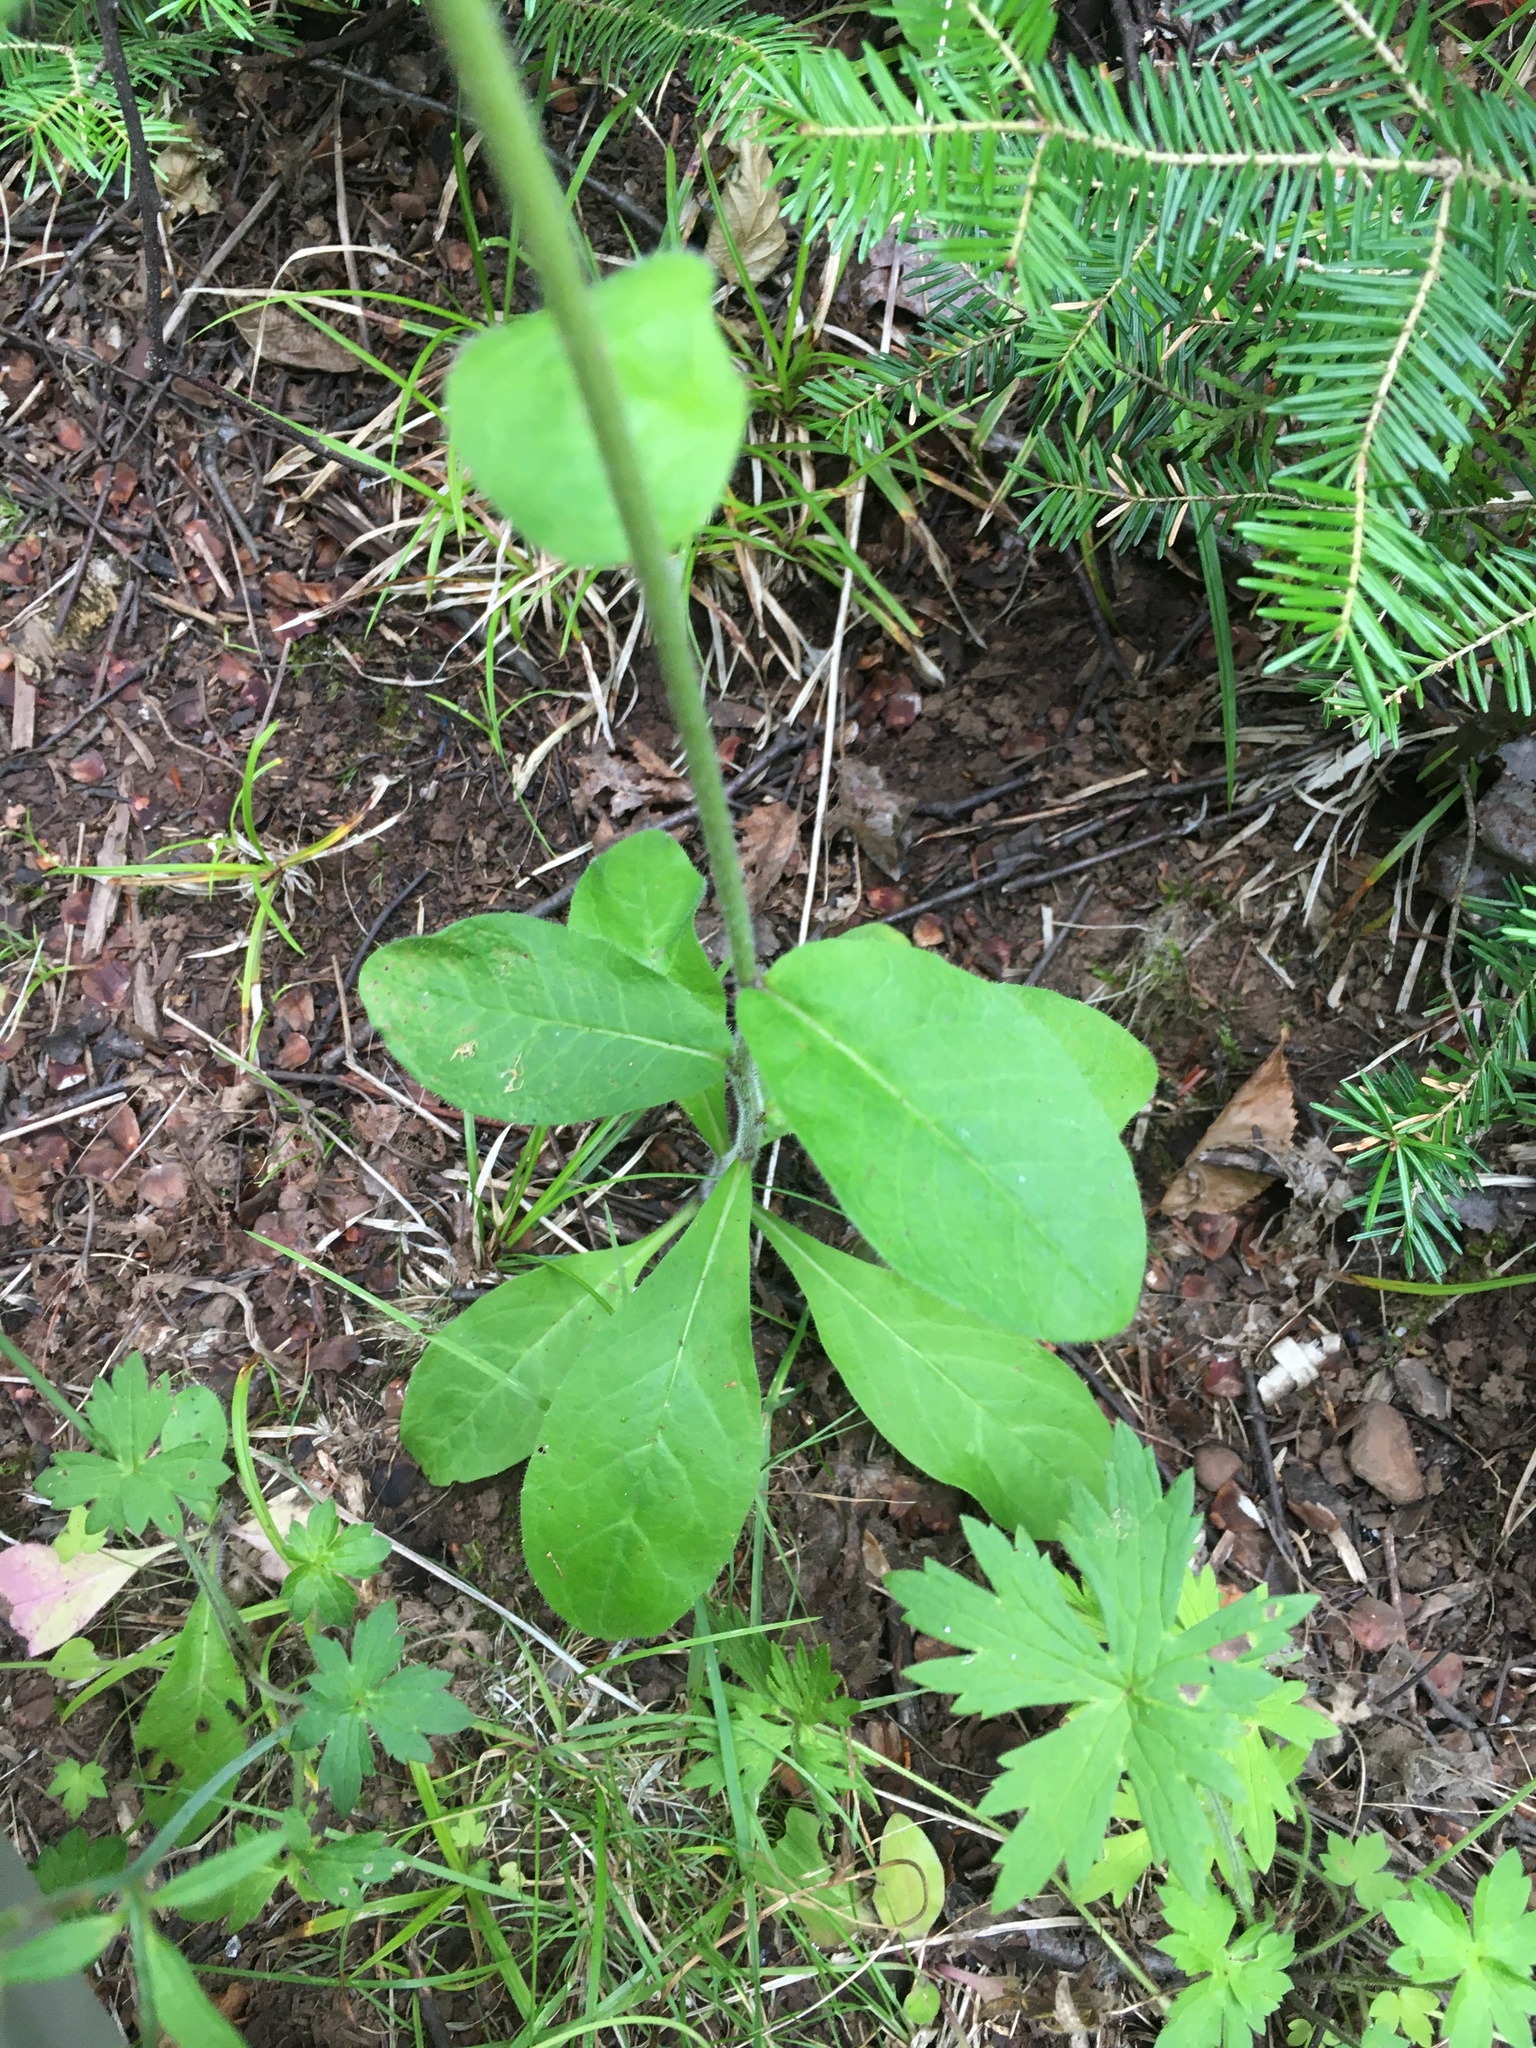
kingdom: Plantae
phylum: Tracheophyta
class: Magnoliopsida
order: Asterales
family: Asteraceae
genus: Hieracium
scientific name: Hieracium scabrum
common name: Rough hawkweed
